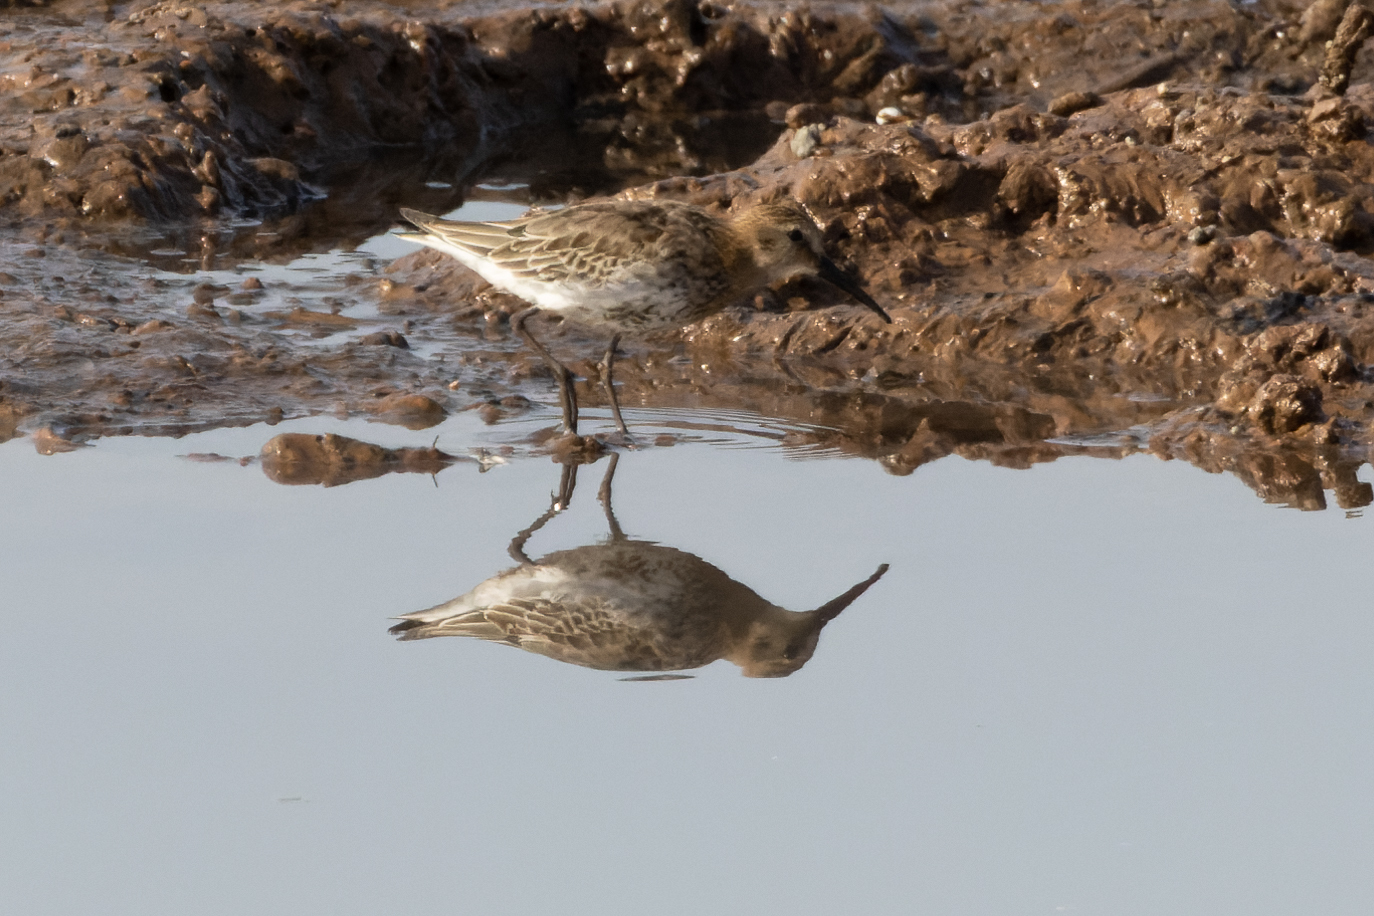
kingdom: Animalia
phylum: Chordata
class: Aves
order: Charadriiformes
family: Scolopacidae
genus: Calidris
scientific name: Calidris alpina
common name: Dunlin
